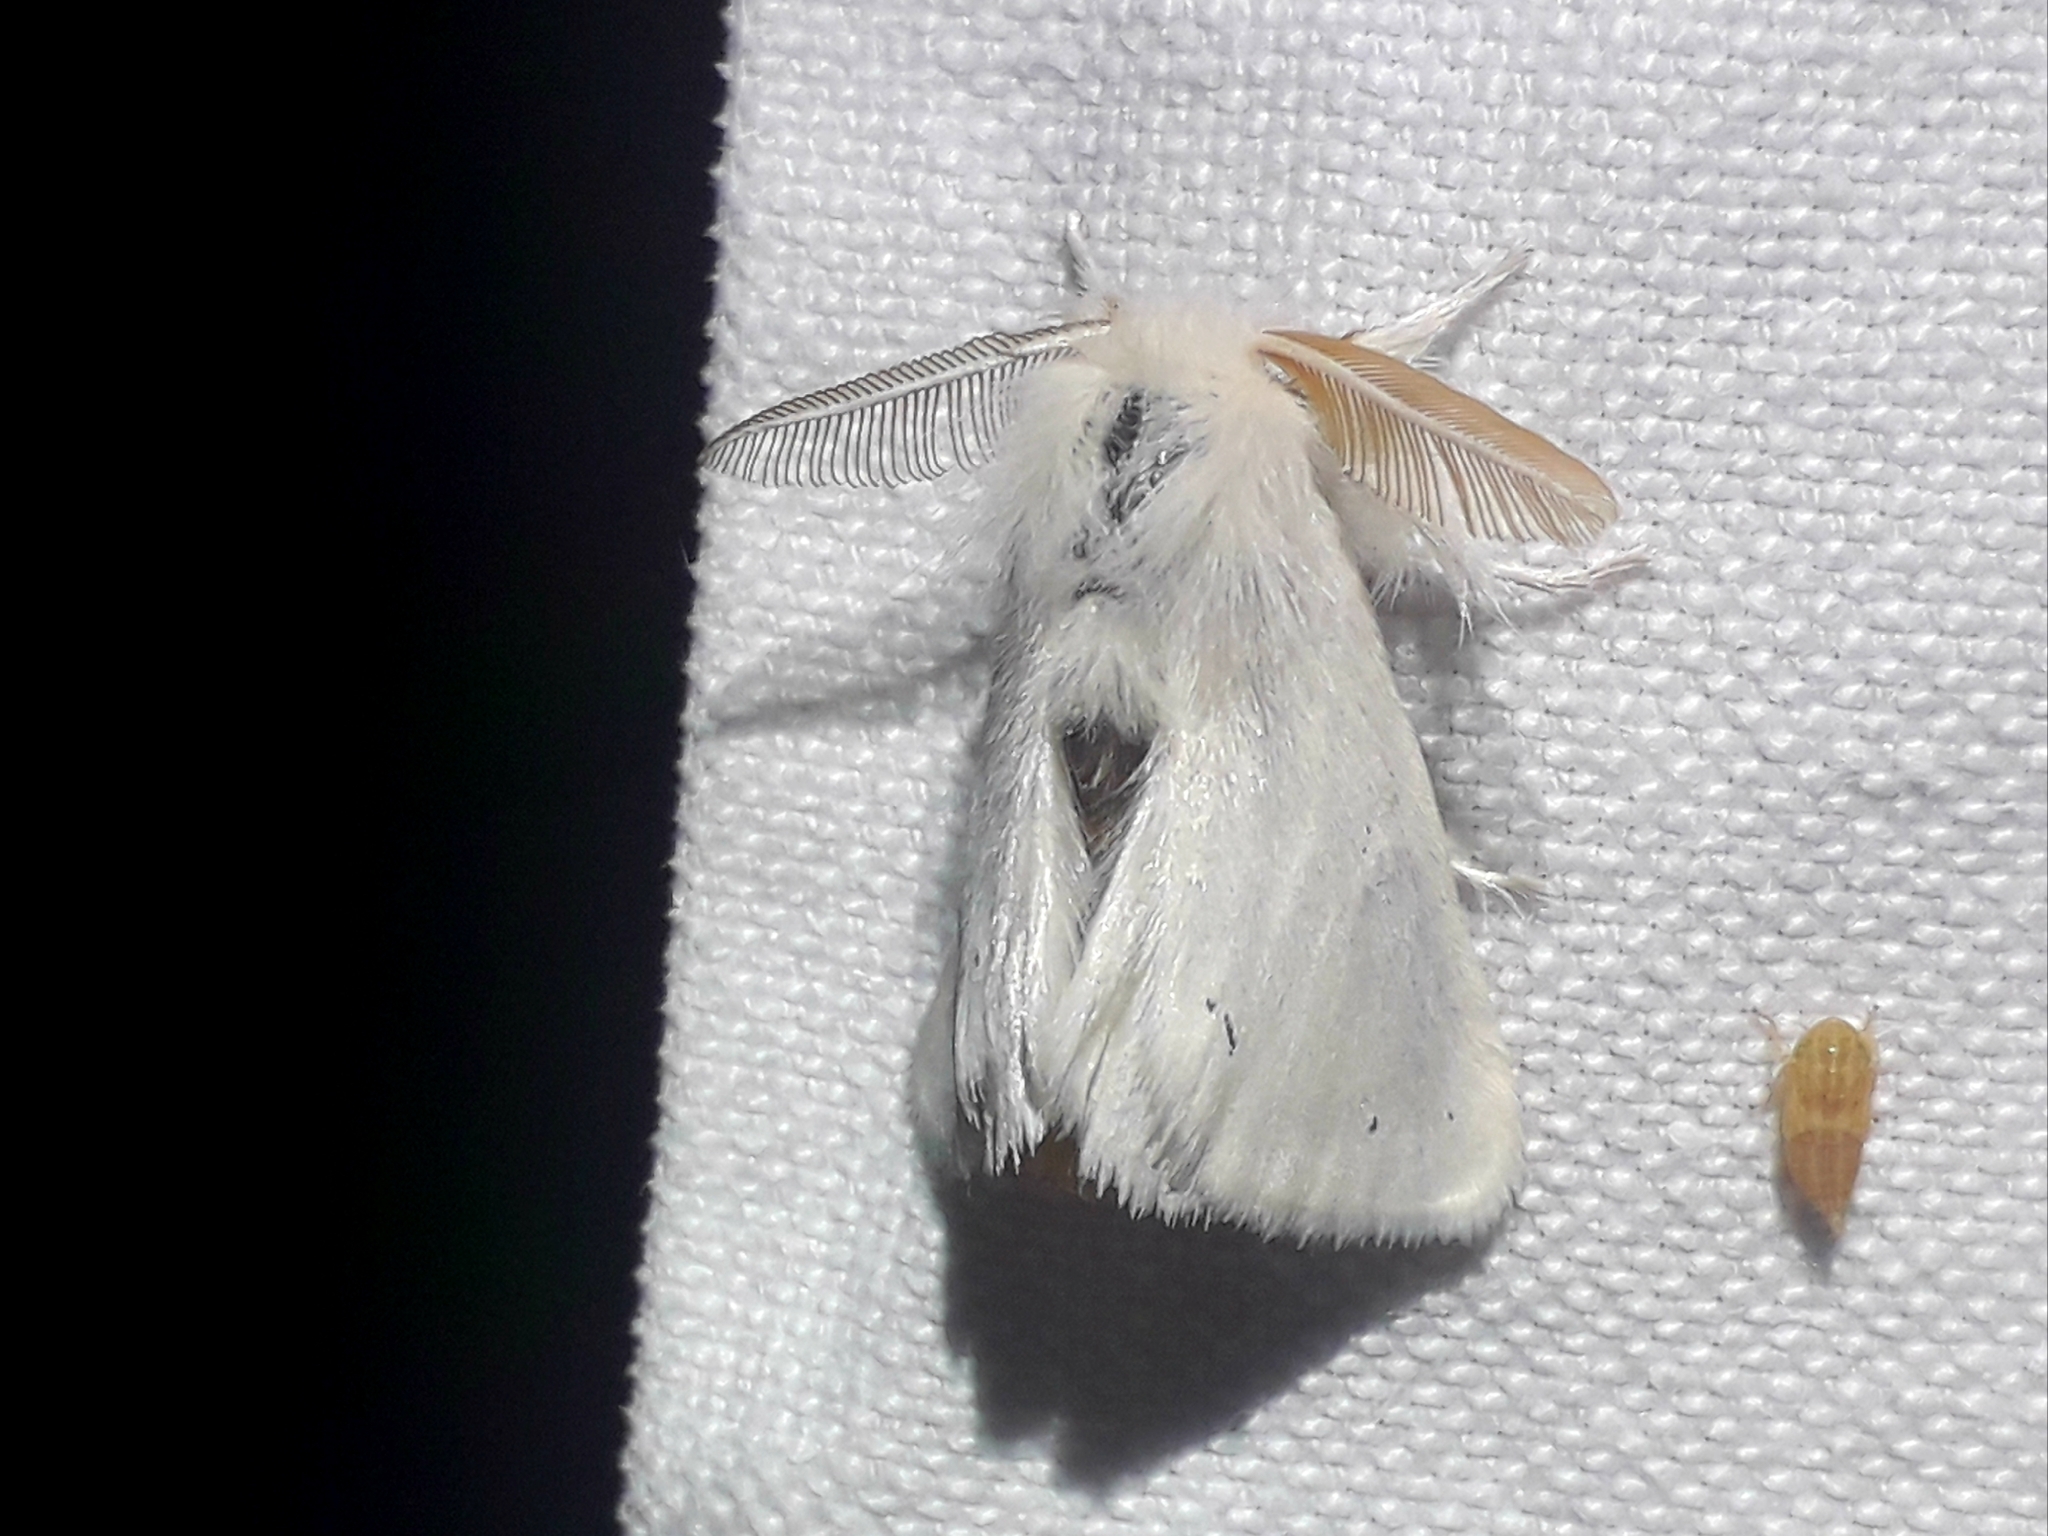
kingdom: Animalia
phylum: Arthropoda
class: Insecta
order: Lepidoptera
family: Erebidae
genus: Euproctis
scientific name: Euproctis chrysorrhoea
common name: Brown-tail
